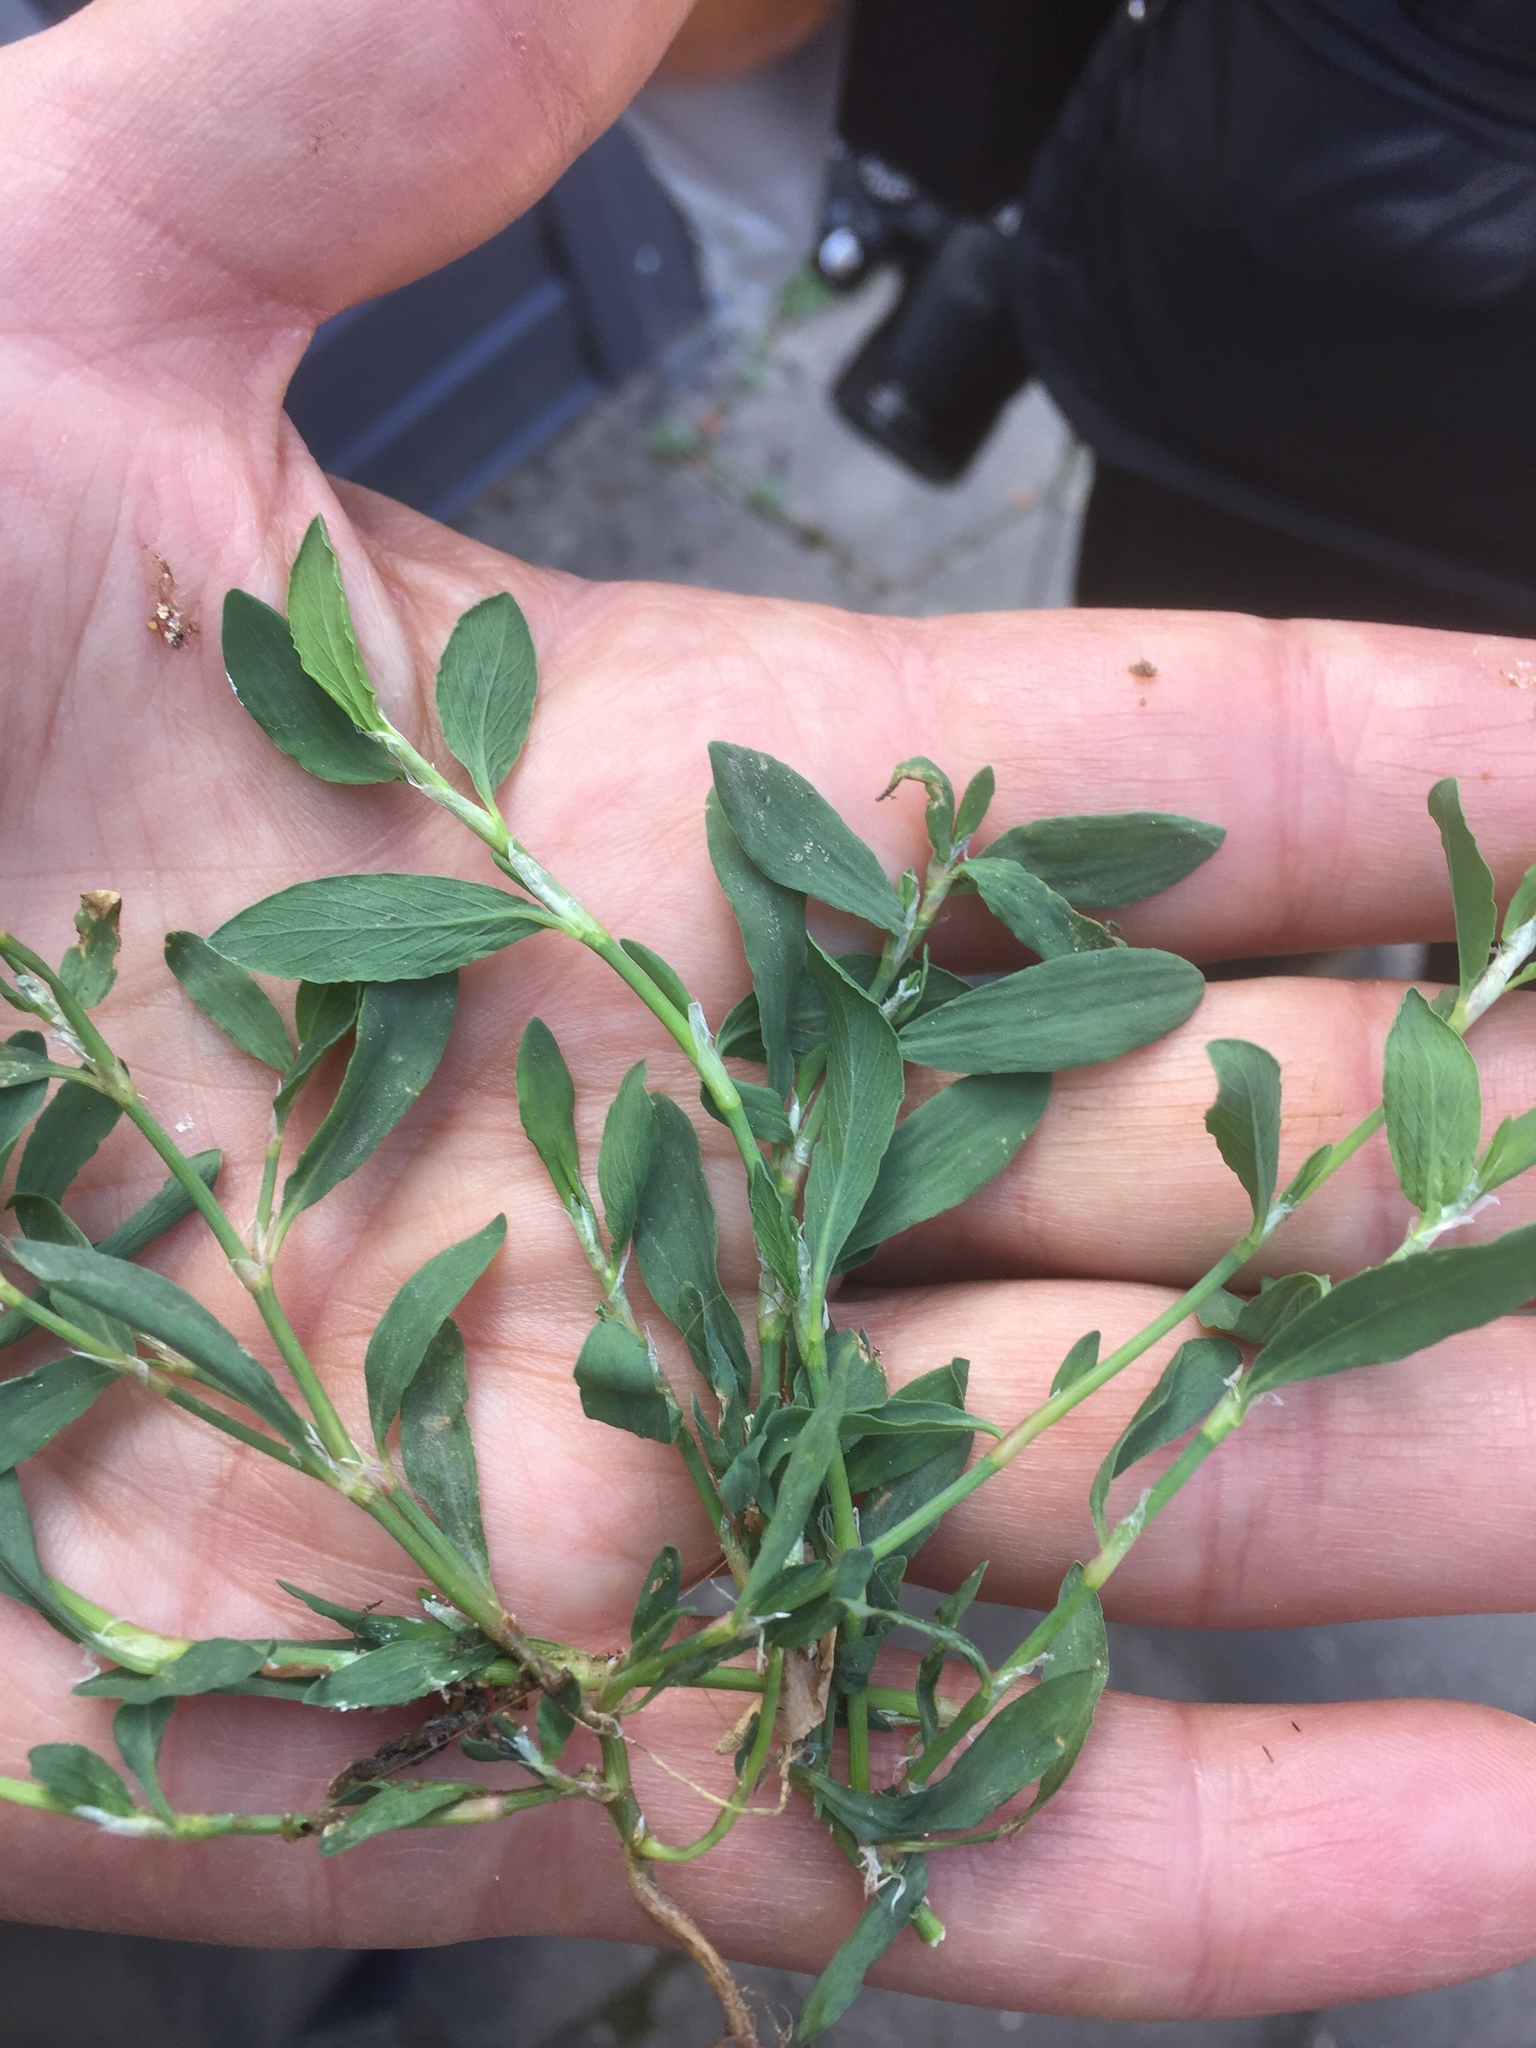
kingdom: Plantae
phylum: Tracheophyta
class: Magnoliopsida
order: Caryophyllales
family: Polygonaceae
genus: Polygonum
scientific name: Polygonum arenastrum
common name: Equal-leaved knotgrass
